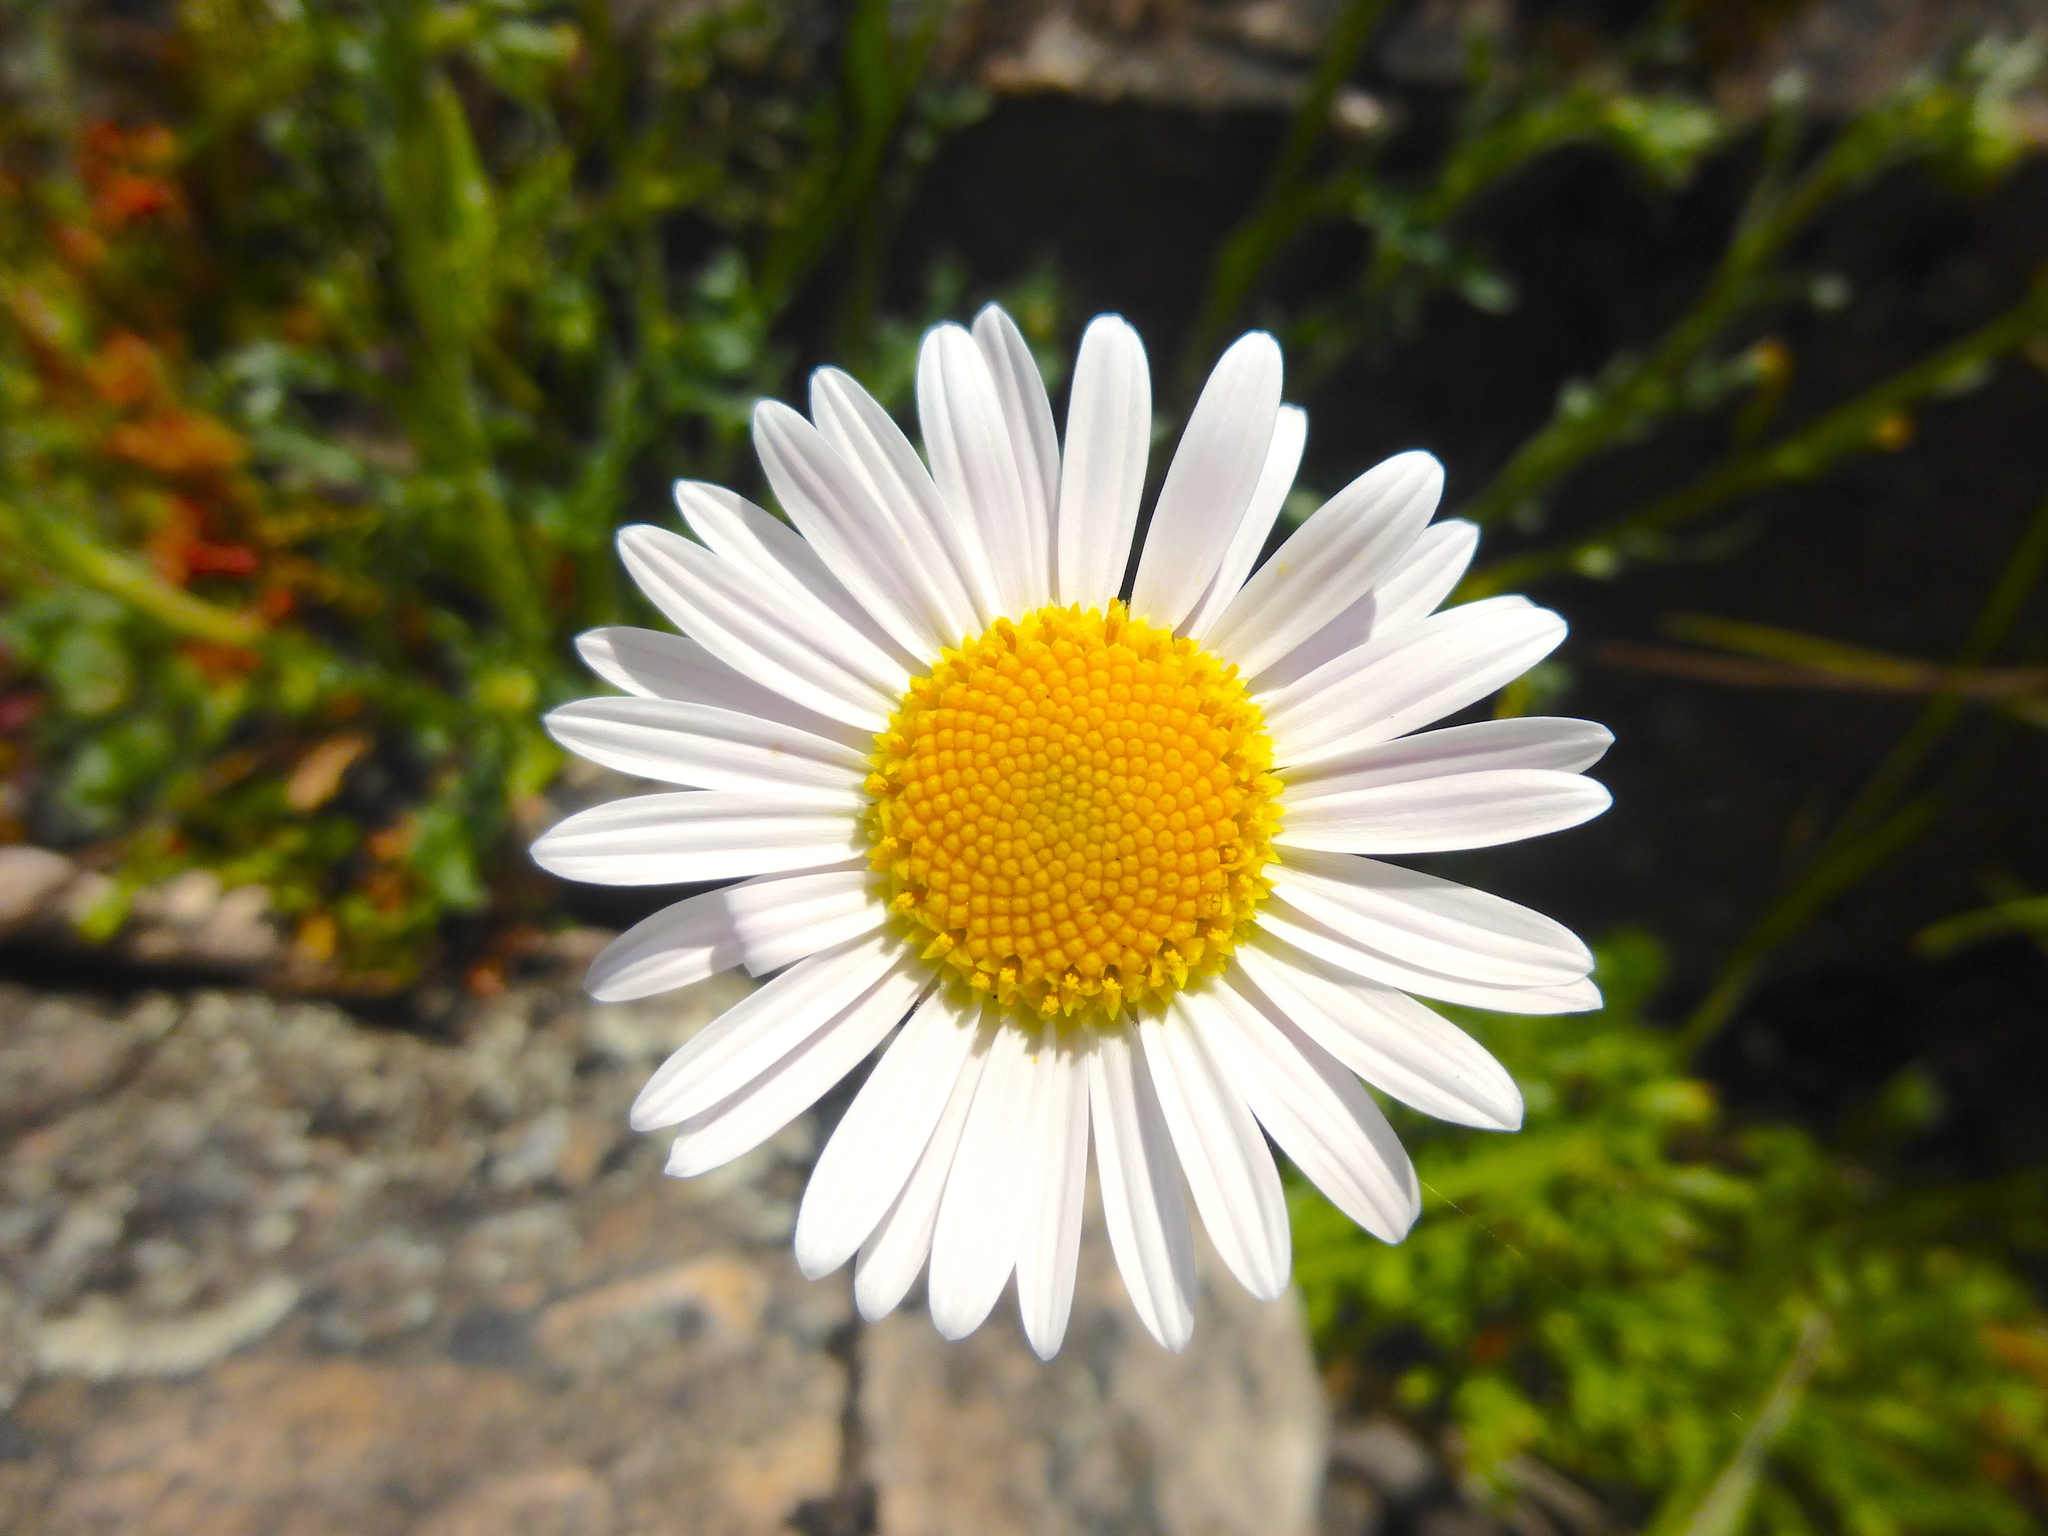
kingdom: Plantae
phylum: Tracheophyta
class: Magnoliopsida
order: Asterales
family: Asteraceae
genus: Brachyscome
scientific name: Brachyscome diversifolia
